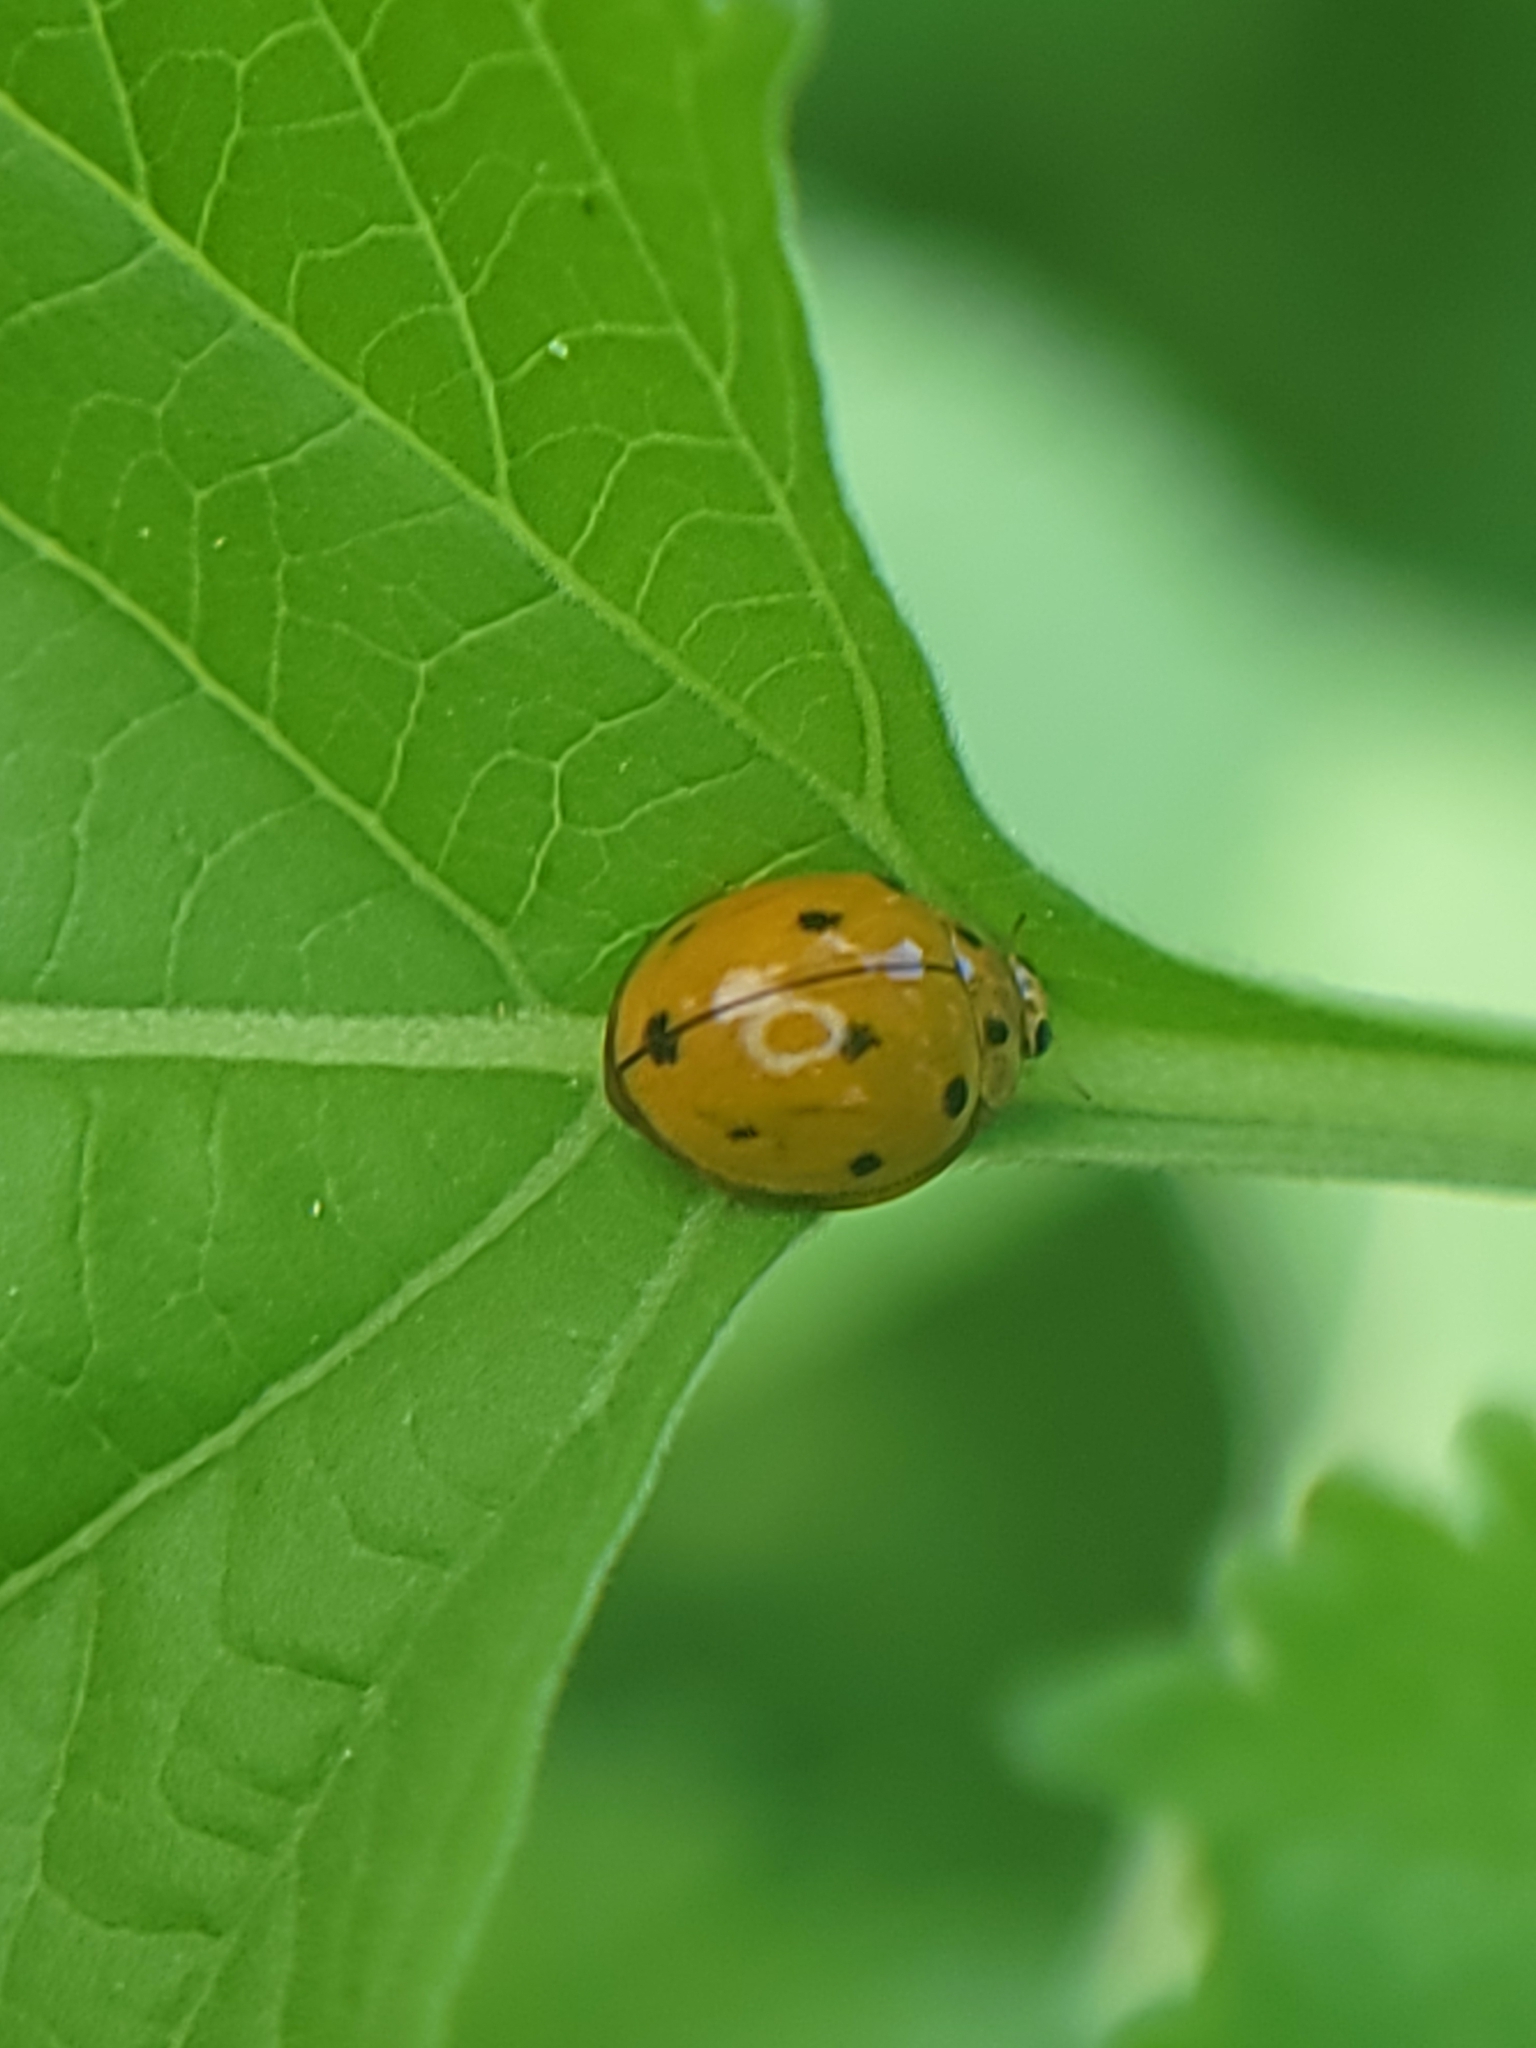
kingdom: Animalia
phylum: Arthropoda
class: Insecta
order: Coleoptera
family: Coccinellidae
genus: Coelophora
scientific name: Coelophora inaequalis
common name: Common australian lady beetle
